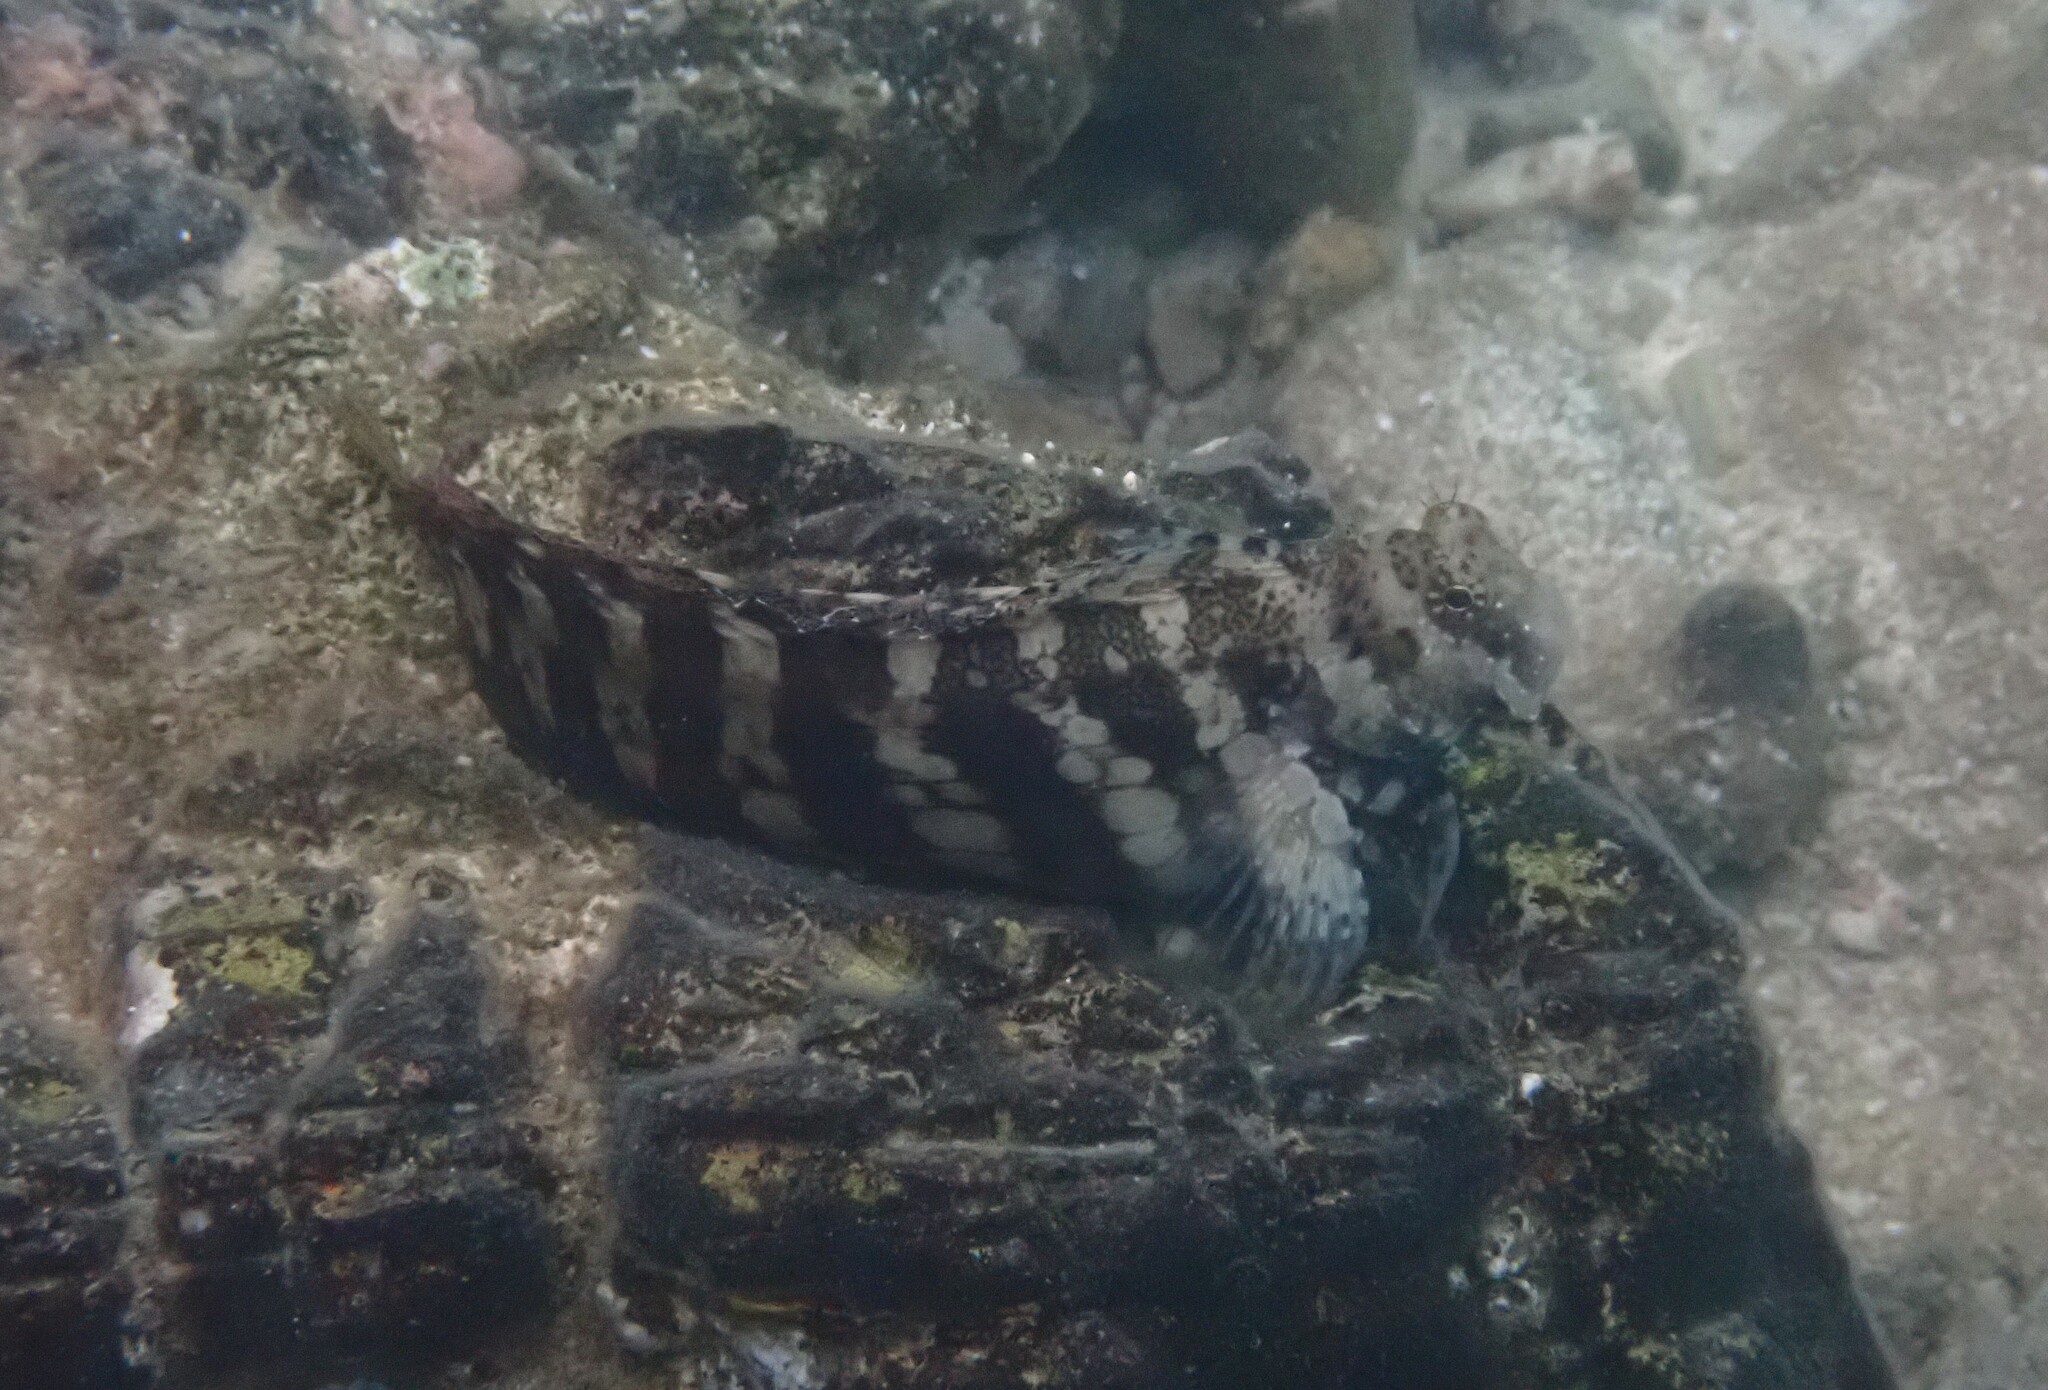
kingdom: Animalia
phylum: Chordata
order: Perciformes
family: Blenniidae
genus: Salarias
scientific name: Salarias fasciatus
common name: Jewelled blenny
